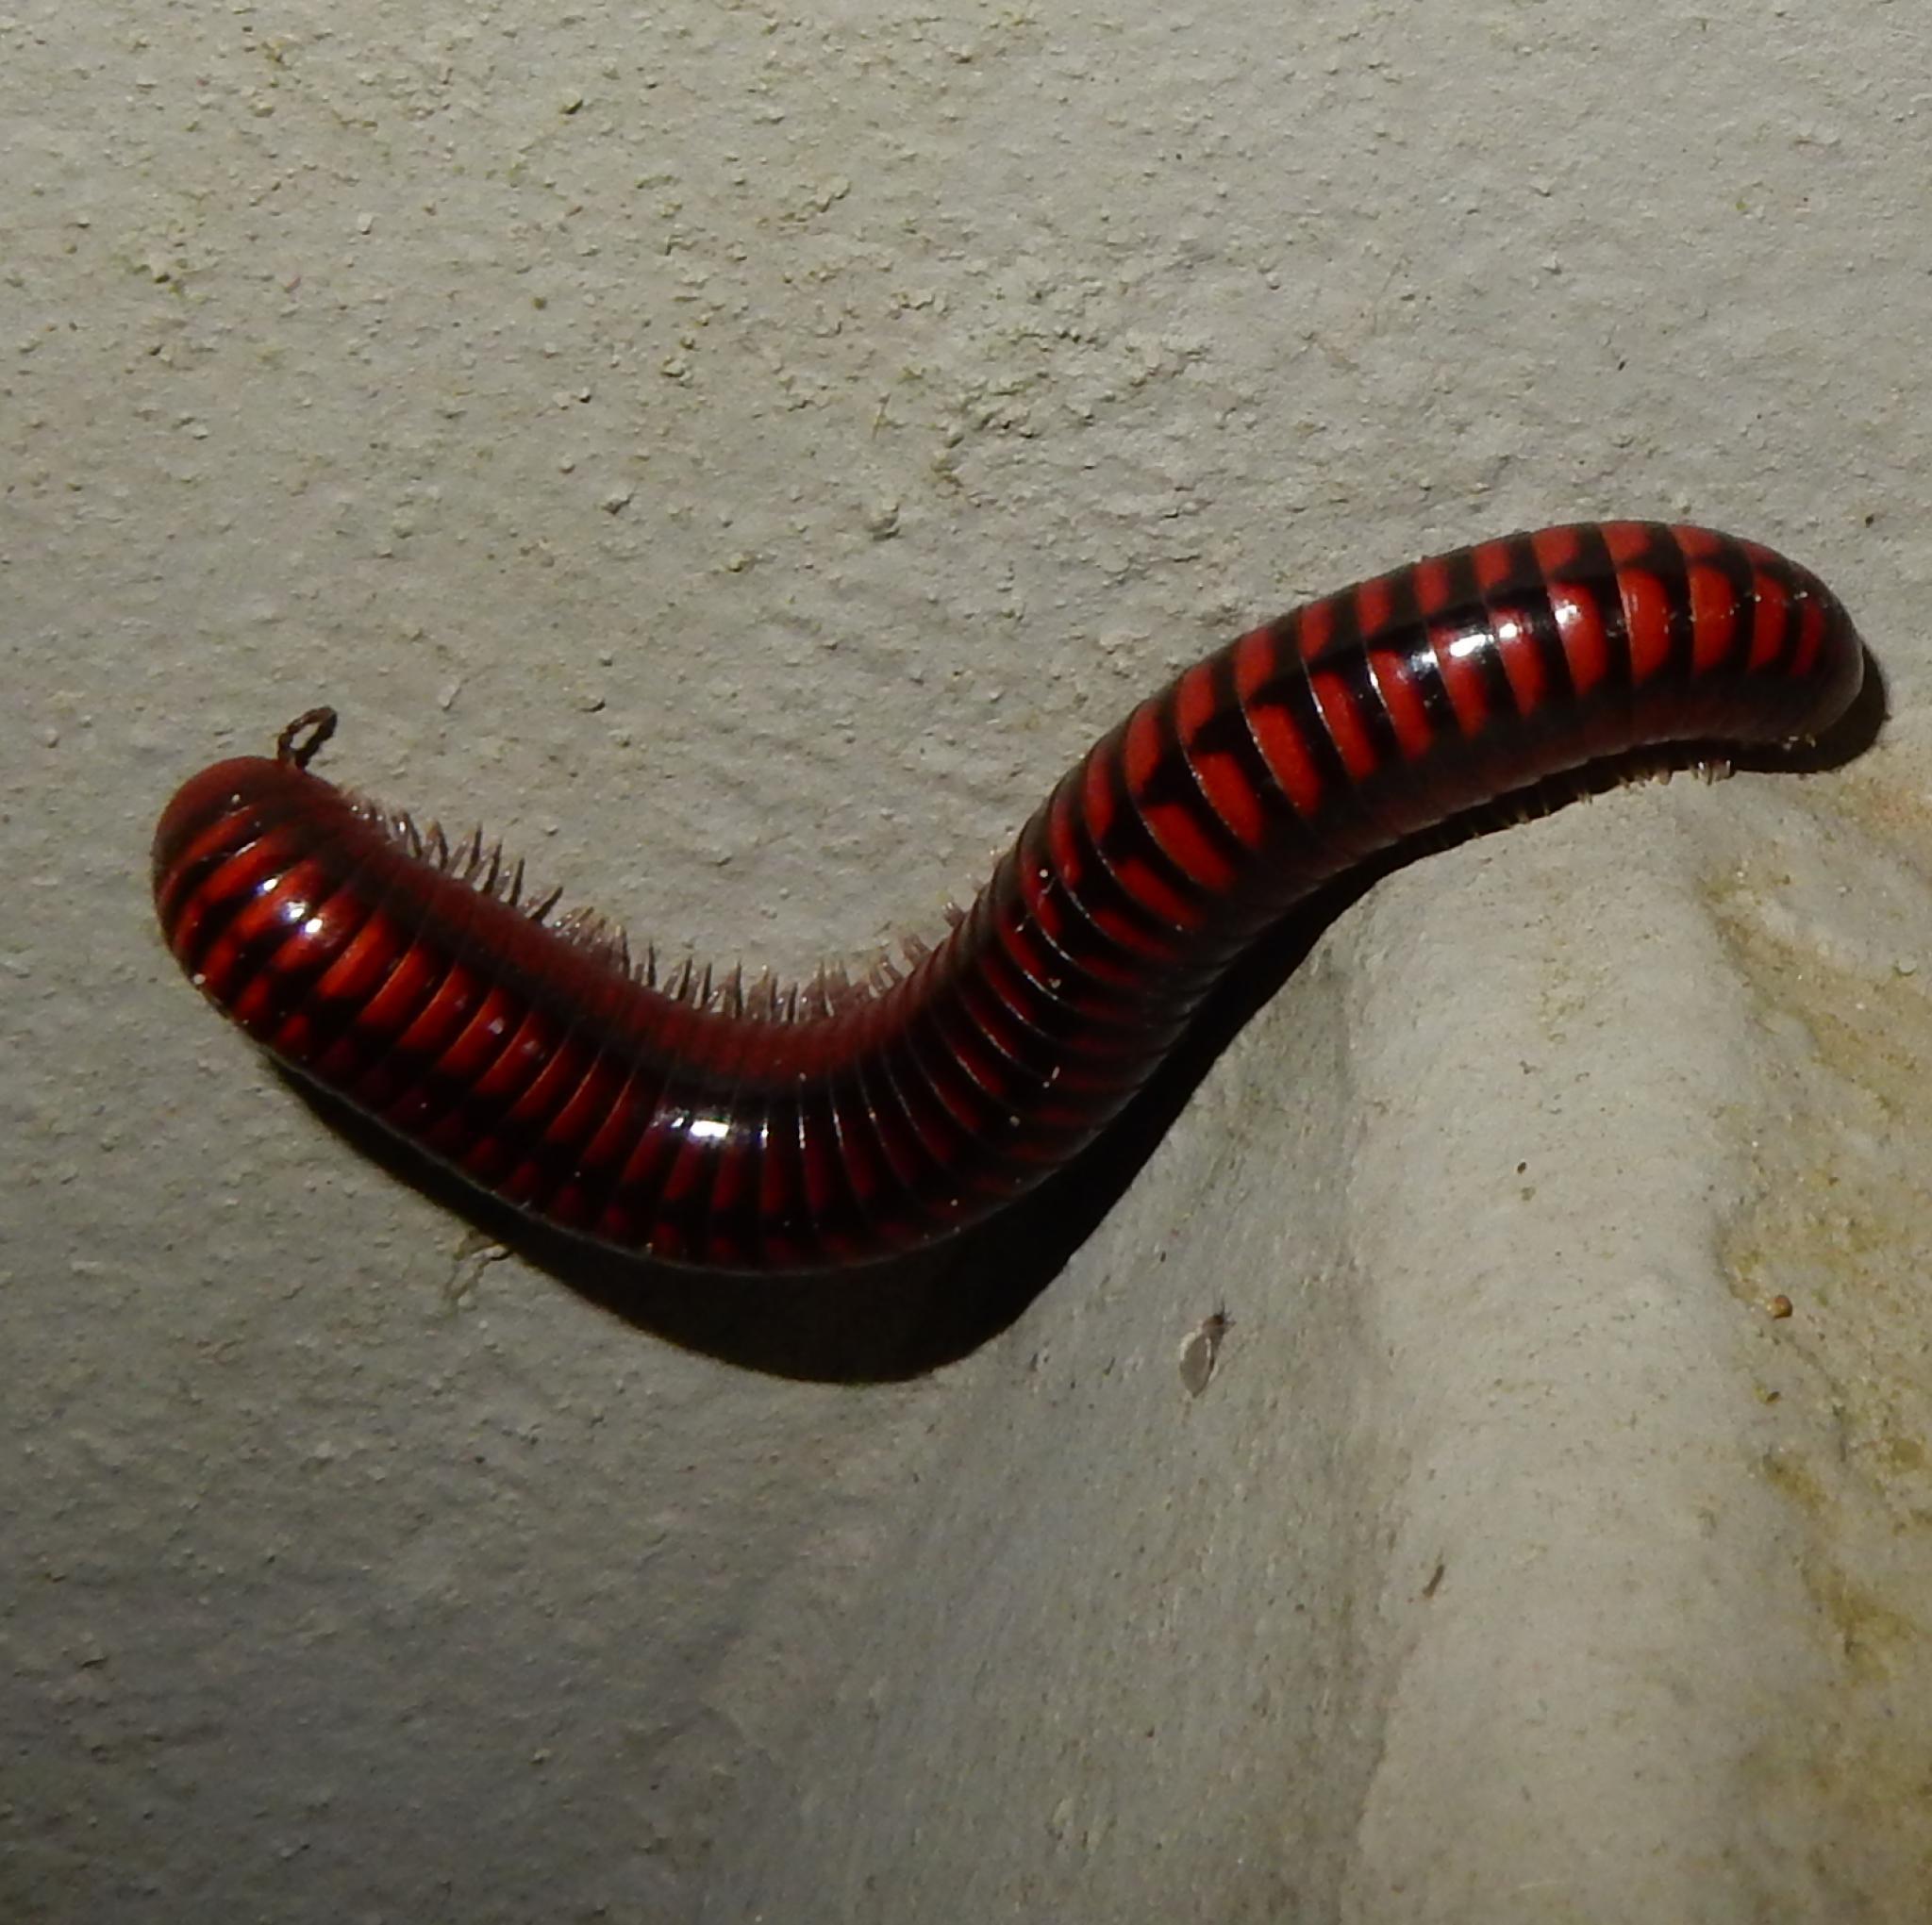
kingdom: Animalia
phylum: Arthropoda
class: Diplopoda
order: Spirobolida
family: Pachybolidae
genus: Centrobolus
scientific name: Centrobolus lugubris
